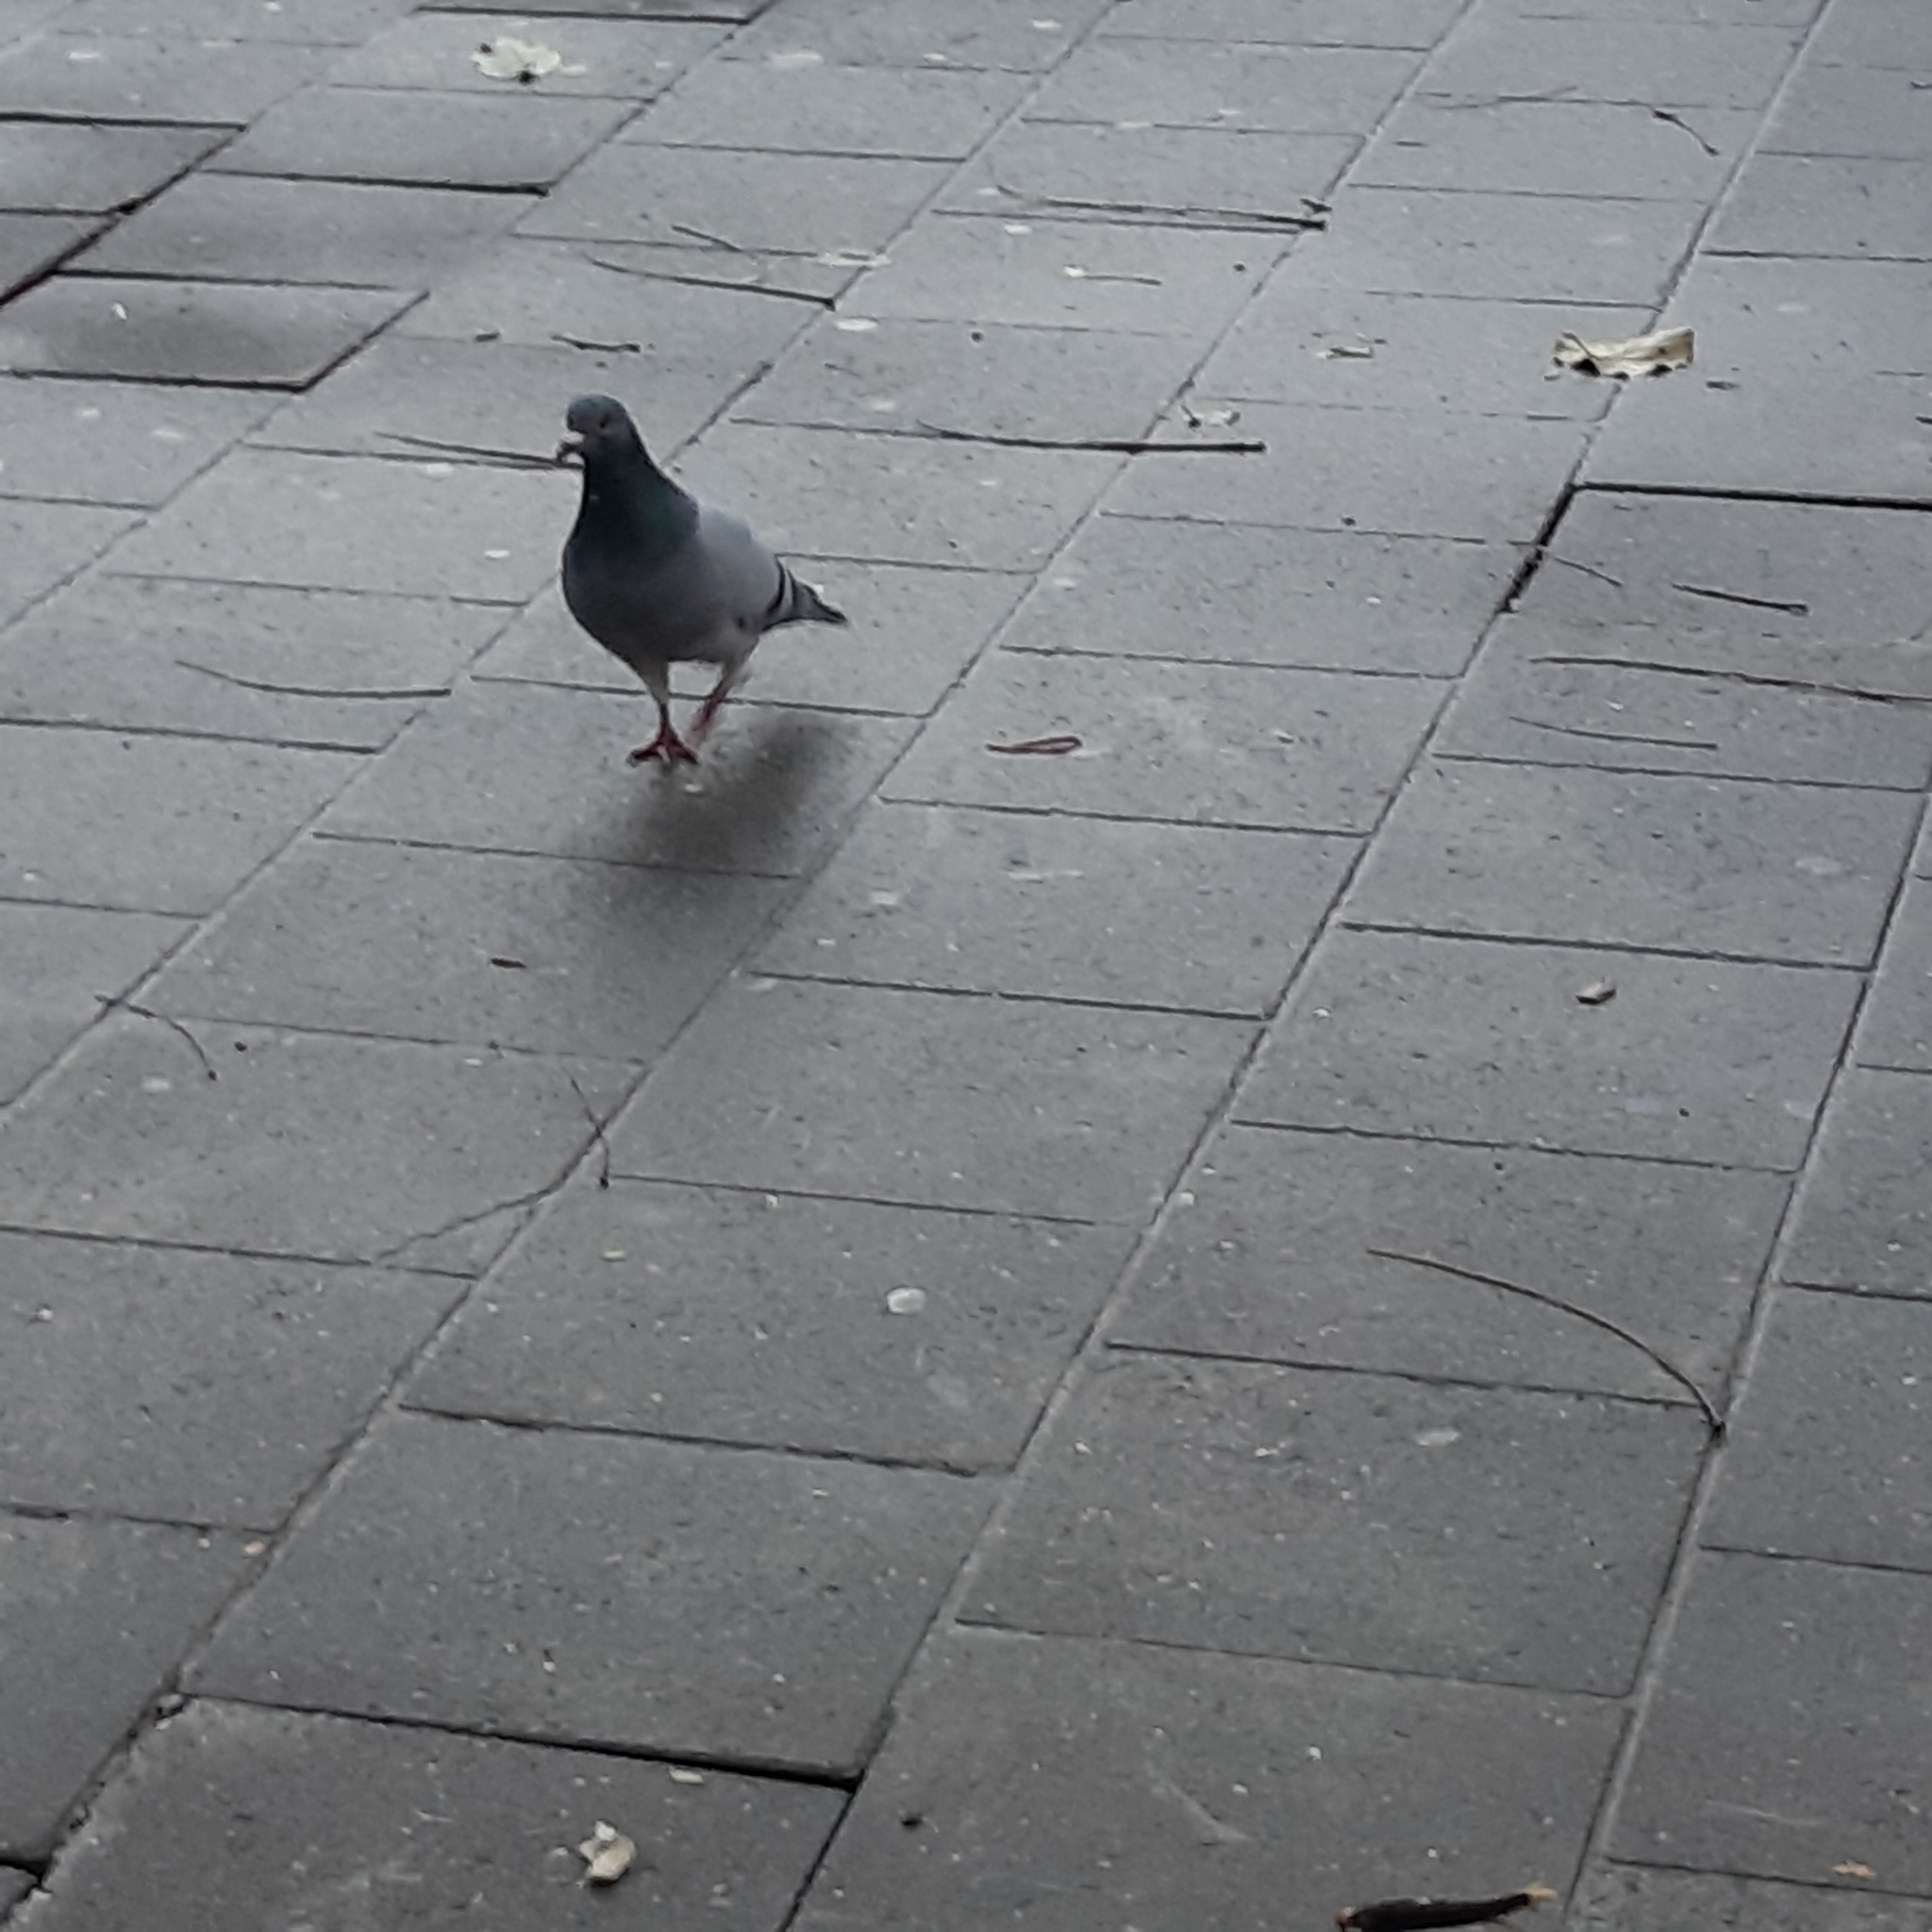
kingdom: Animalia
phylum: Chordata
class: Aves
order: Columbiformes
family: Columbidae
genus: Columba
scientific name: Columba livia
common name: Rock pigeon
